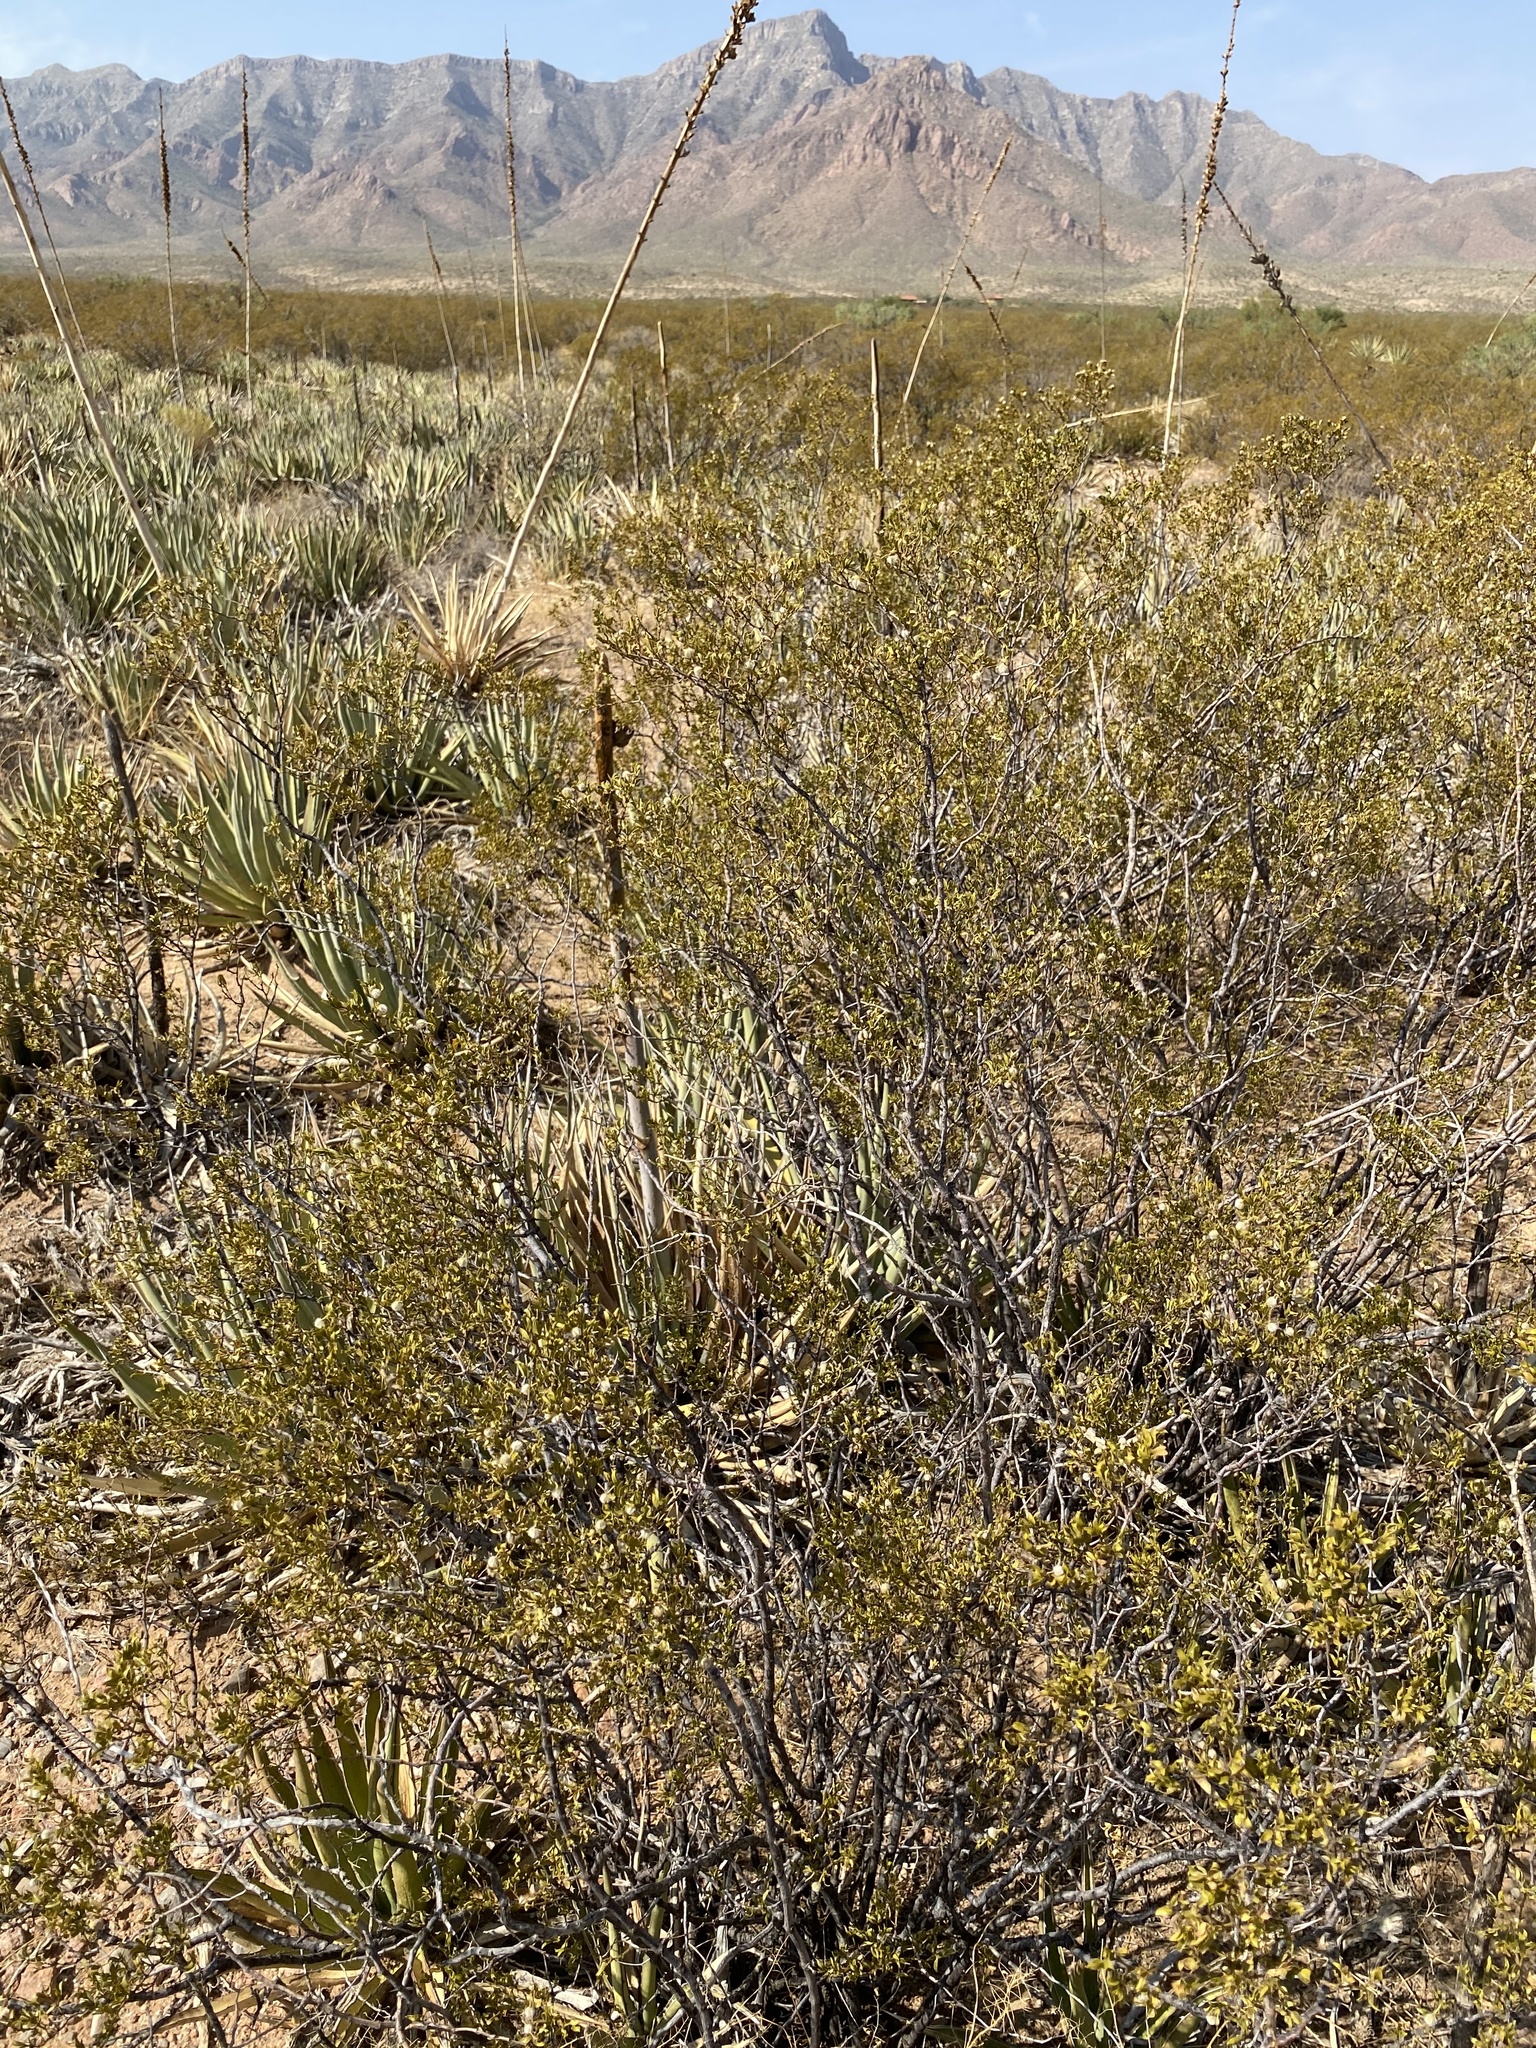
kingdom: Plantae
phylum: Tracheophyta
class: Magnoliopsida
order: Zygophyllales
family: Zygophyllaceae
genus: Larrea
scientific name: Larrea tridentata
